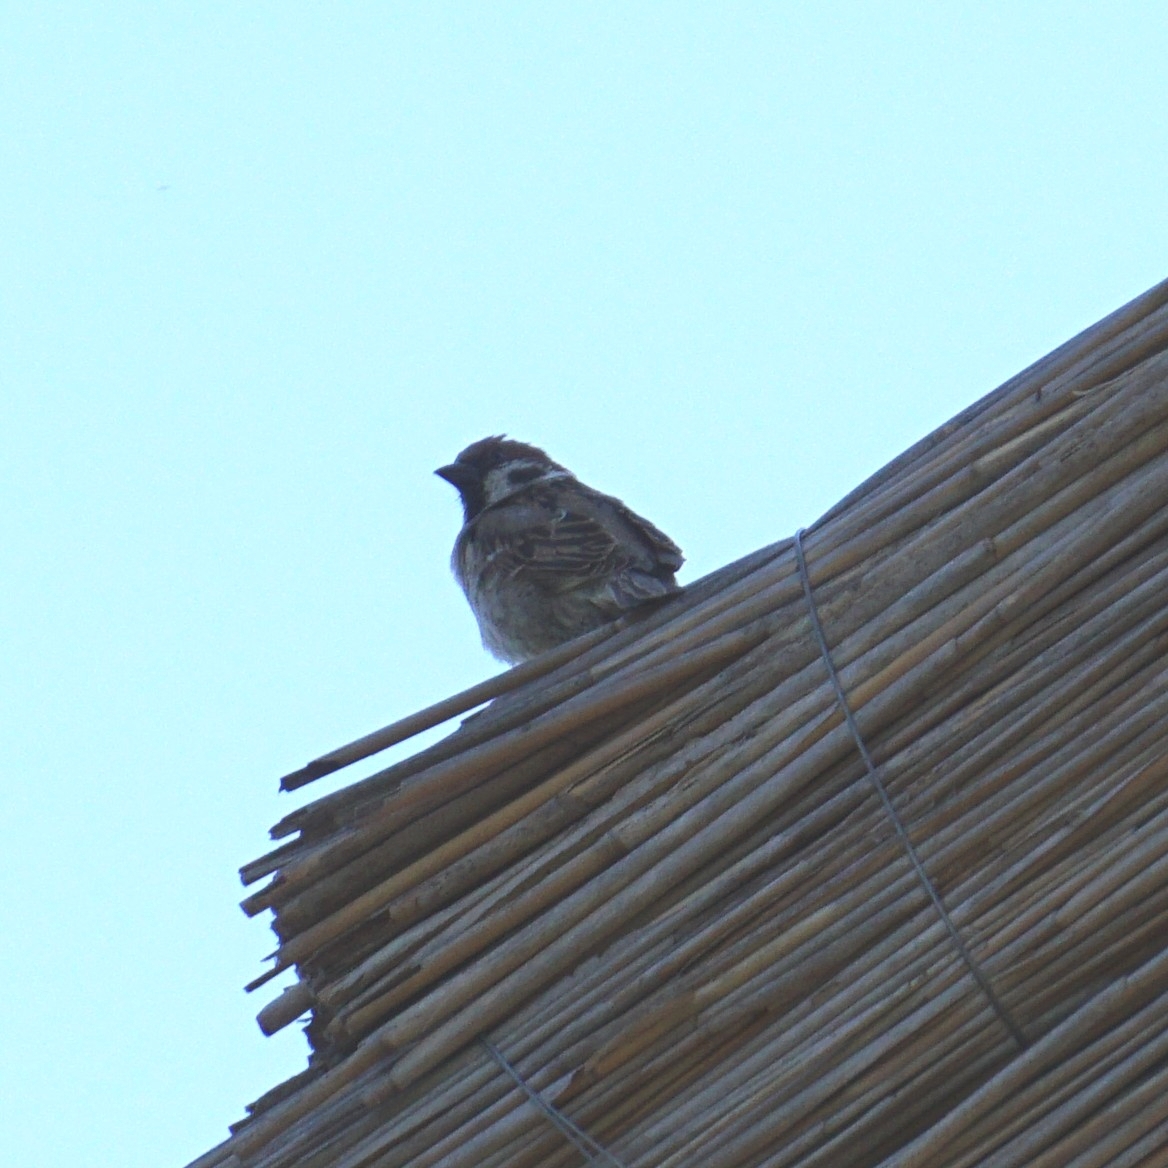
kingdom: Animalia
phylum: Chordata
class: Aves
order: Passeriformes
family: Passeridae
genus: Passer
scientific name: Passer montanus
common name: Eurasian tree sparrow
